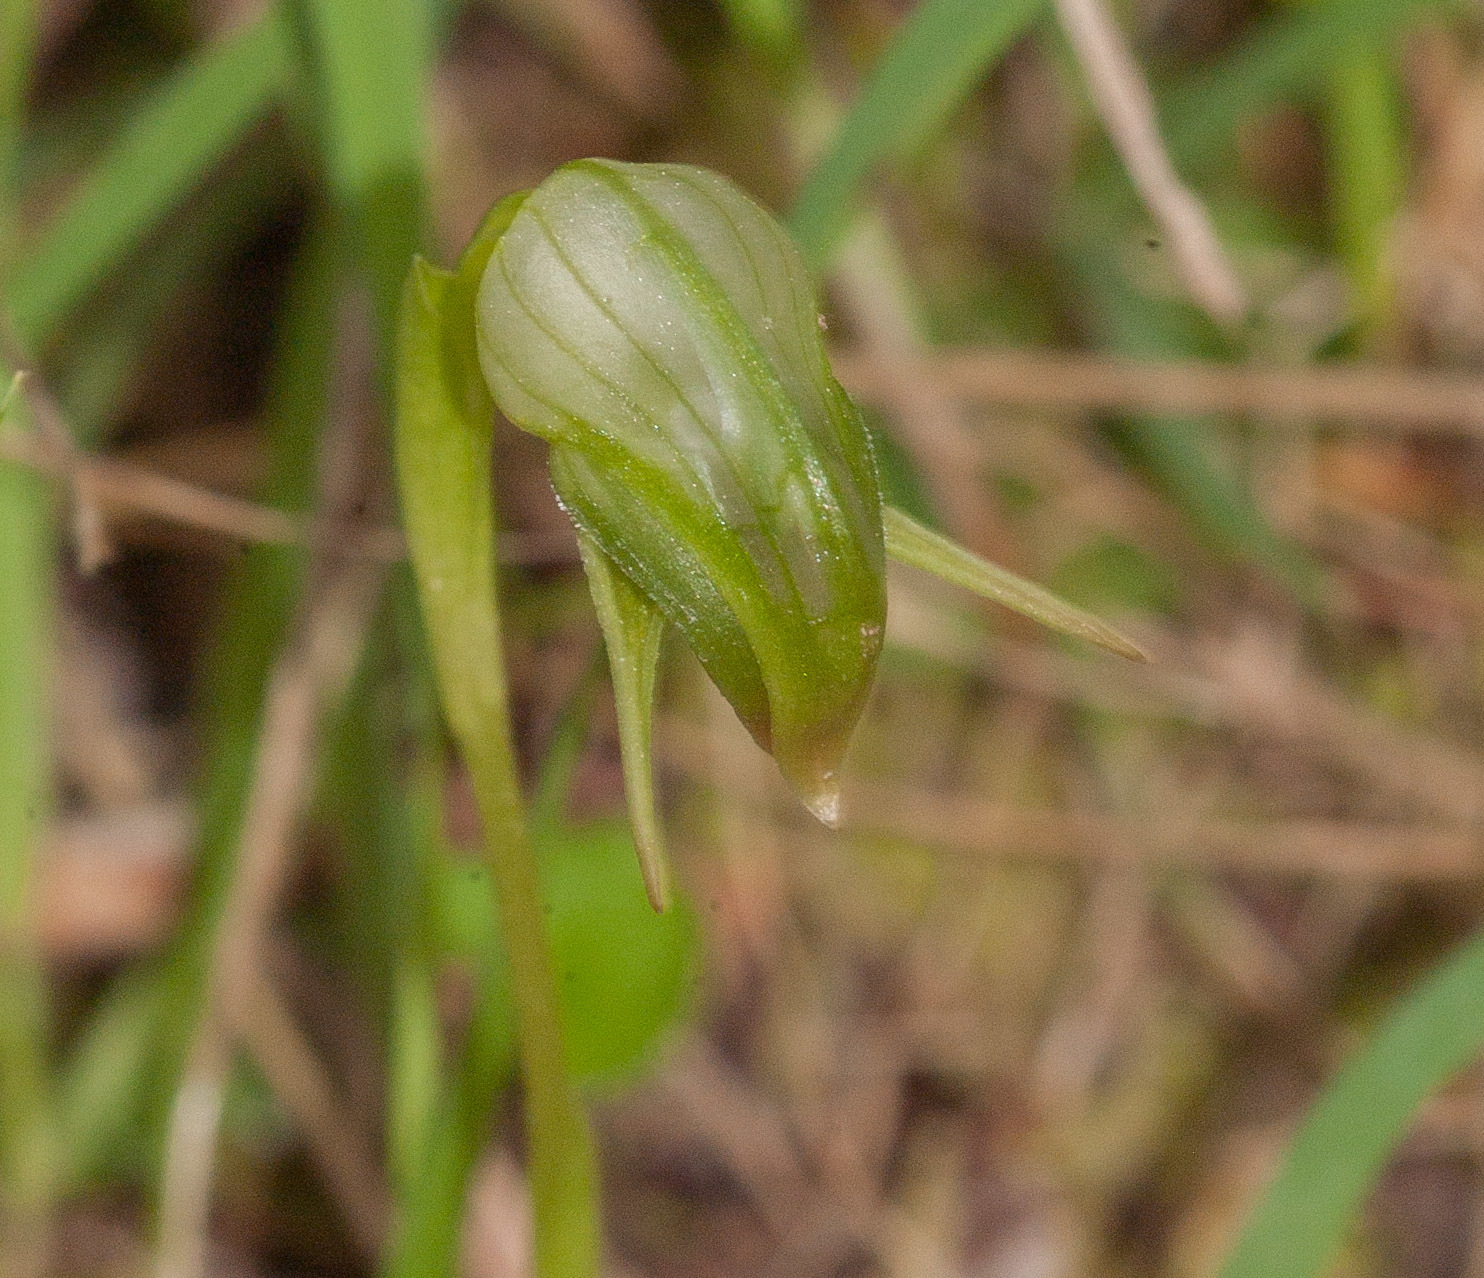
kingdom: Plantae
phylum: Tracheophyta
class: Liliopsida
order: Asparagales
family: Orchidaceae
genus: Pterostylis
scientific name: Pterostylis nutans
